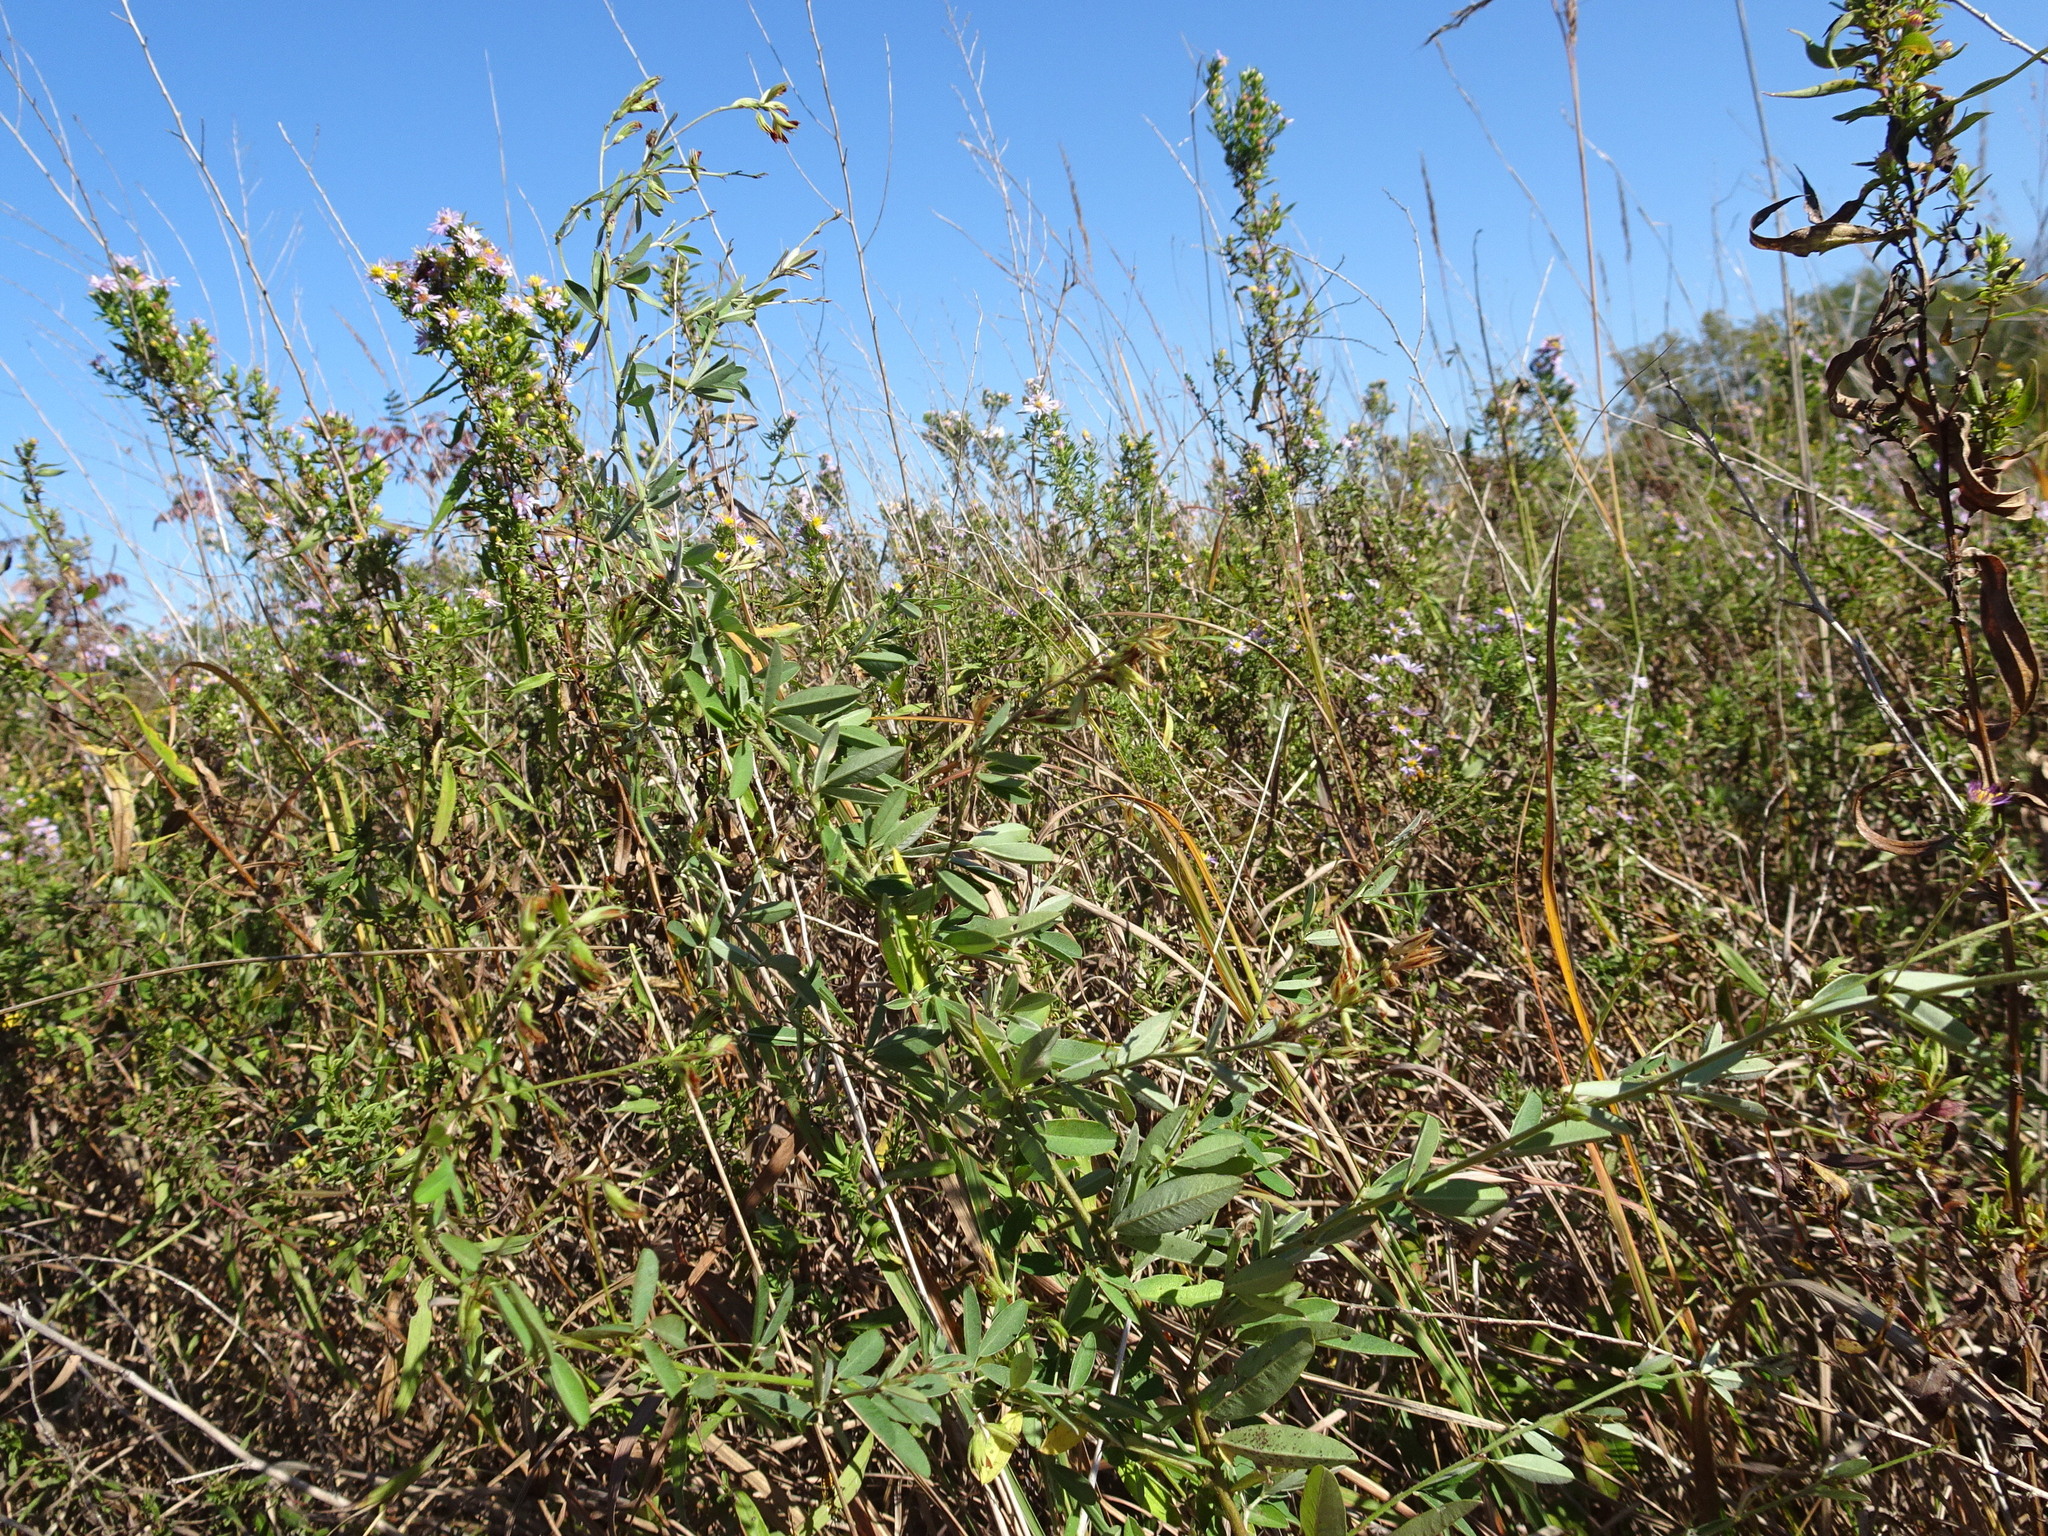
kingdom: Plantae
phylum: Tracheophyta
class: Magnoliopsida
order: Fabales
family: Fabaceae
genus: Lespedeza
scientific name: Lespedeza manniana
